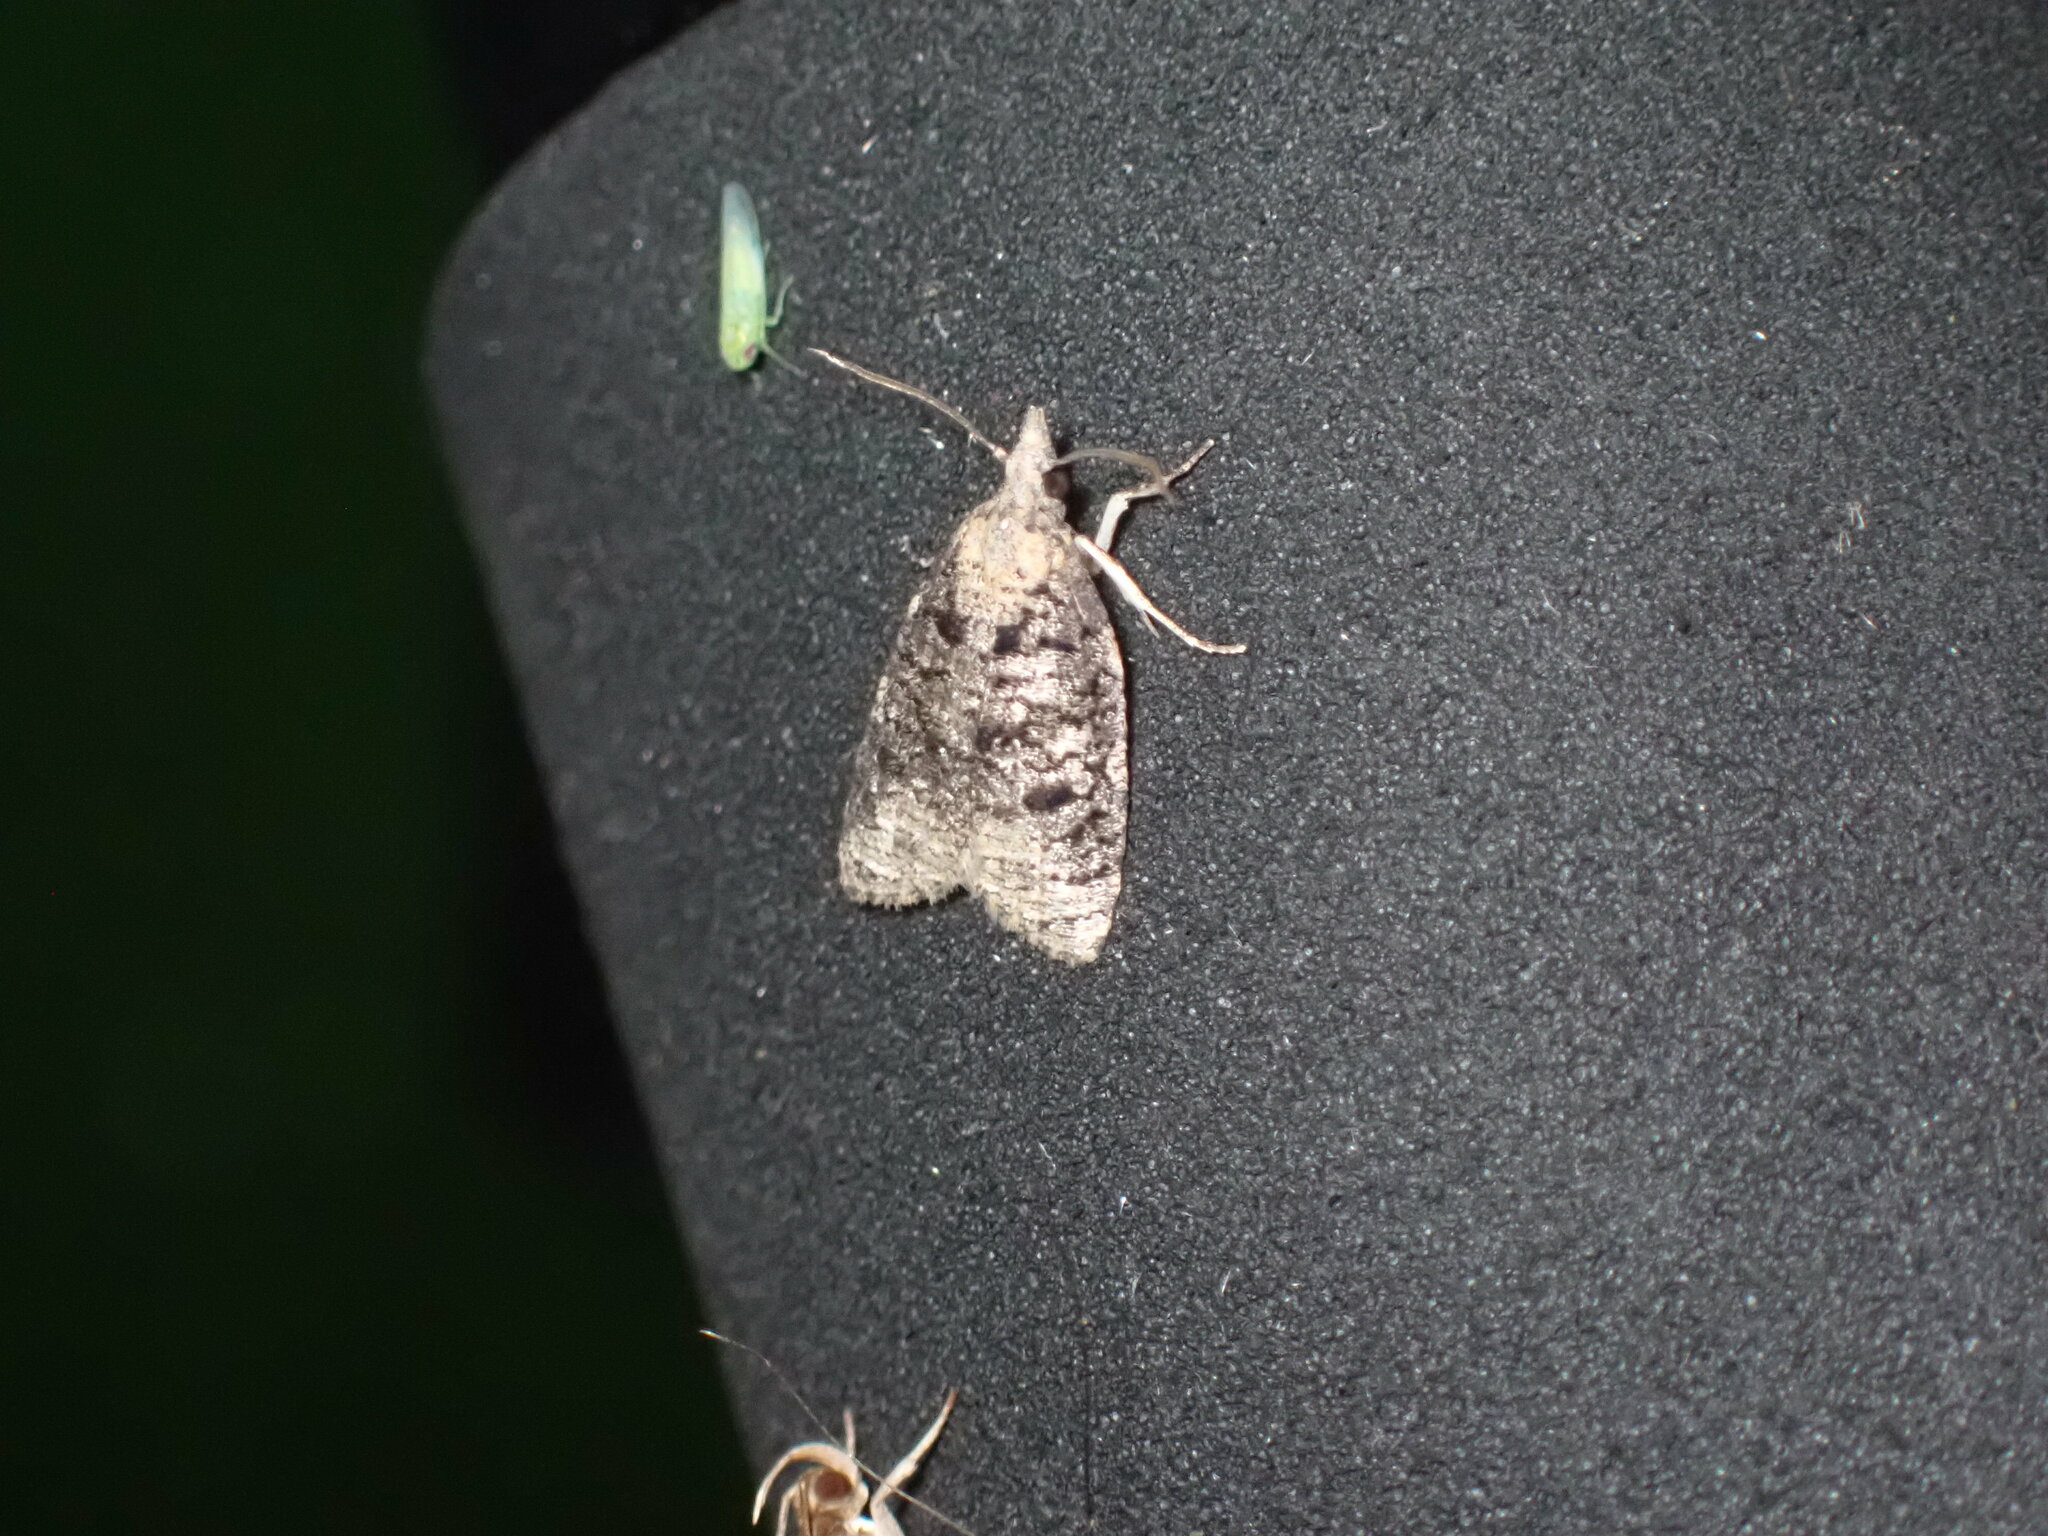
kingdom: Animalia
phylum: Arthropoda
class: Insecta
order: Lepidoptera
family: Tortricidae
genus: Platynota
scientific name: Platynota exasperatana
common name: Exasperating platynota moth
